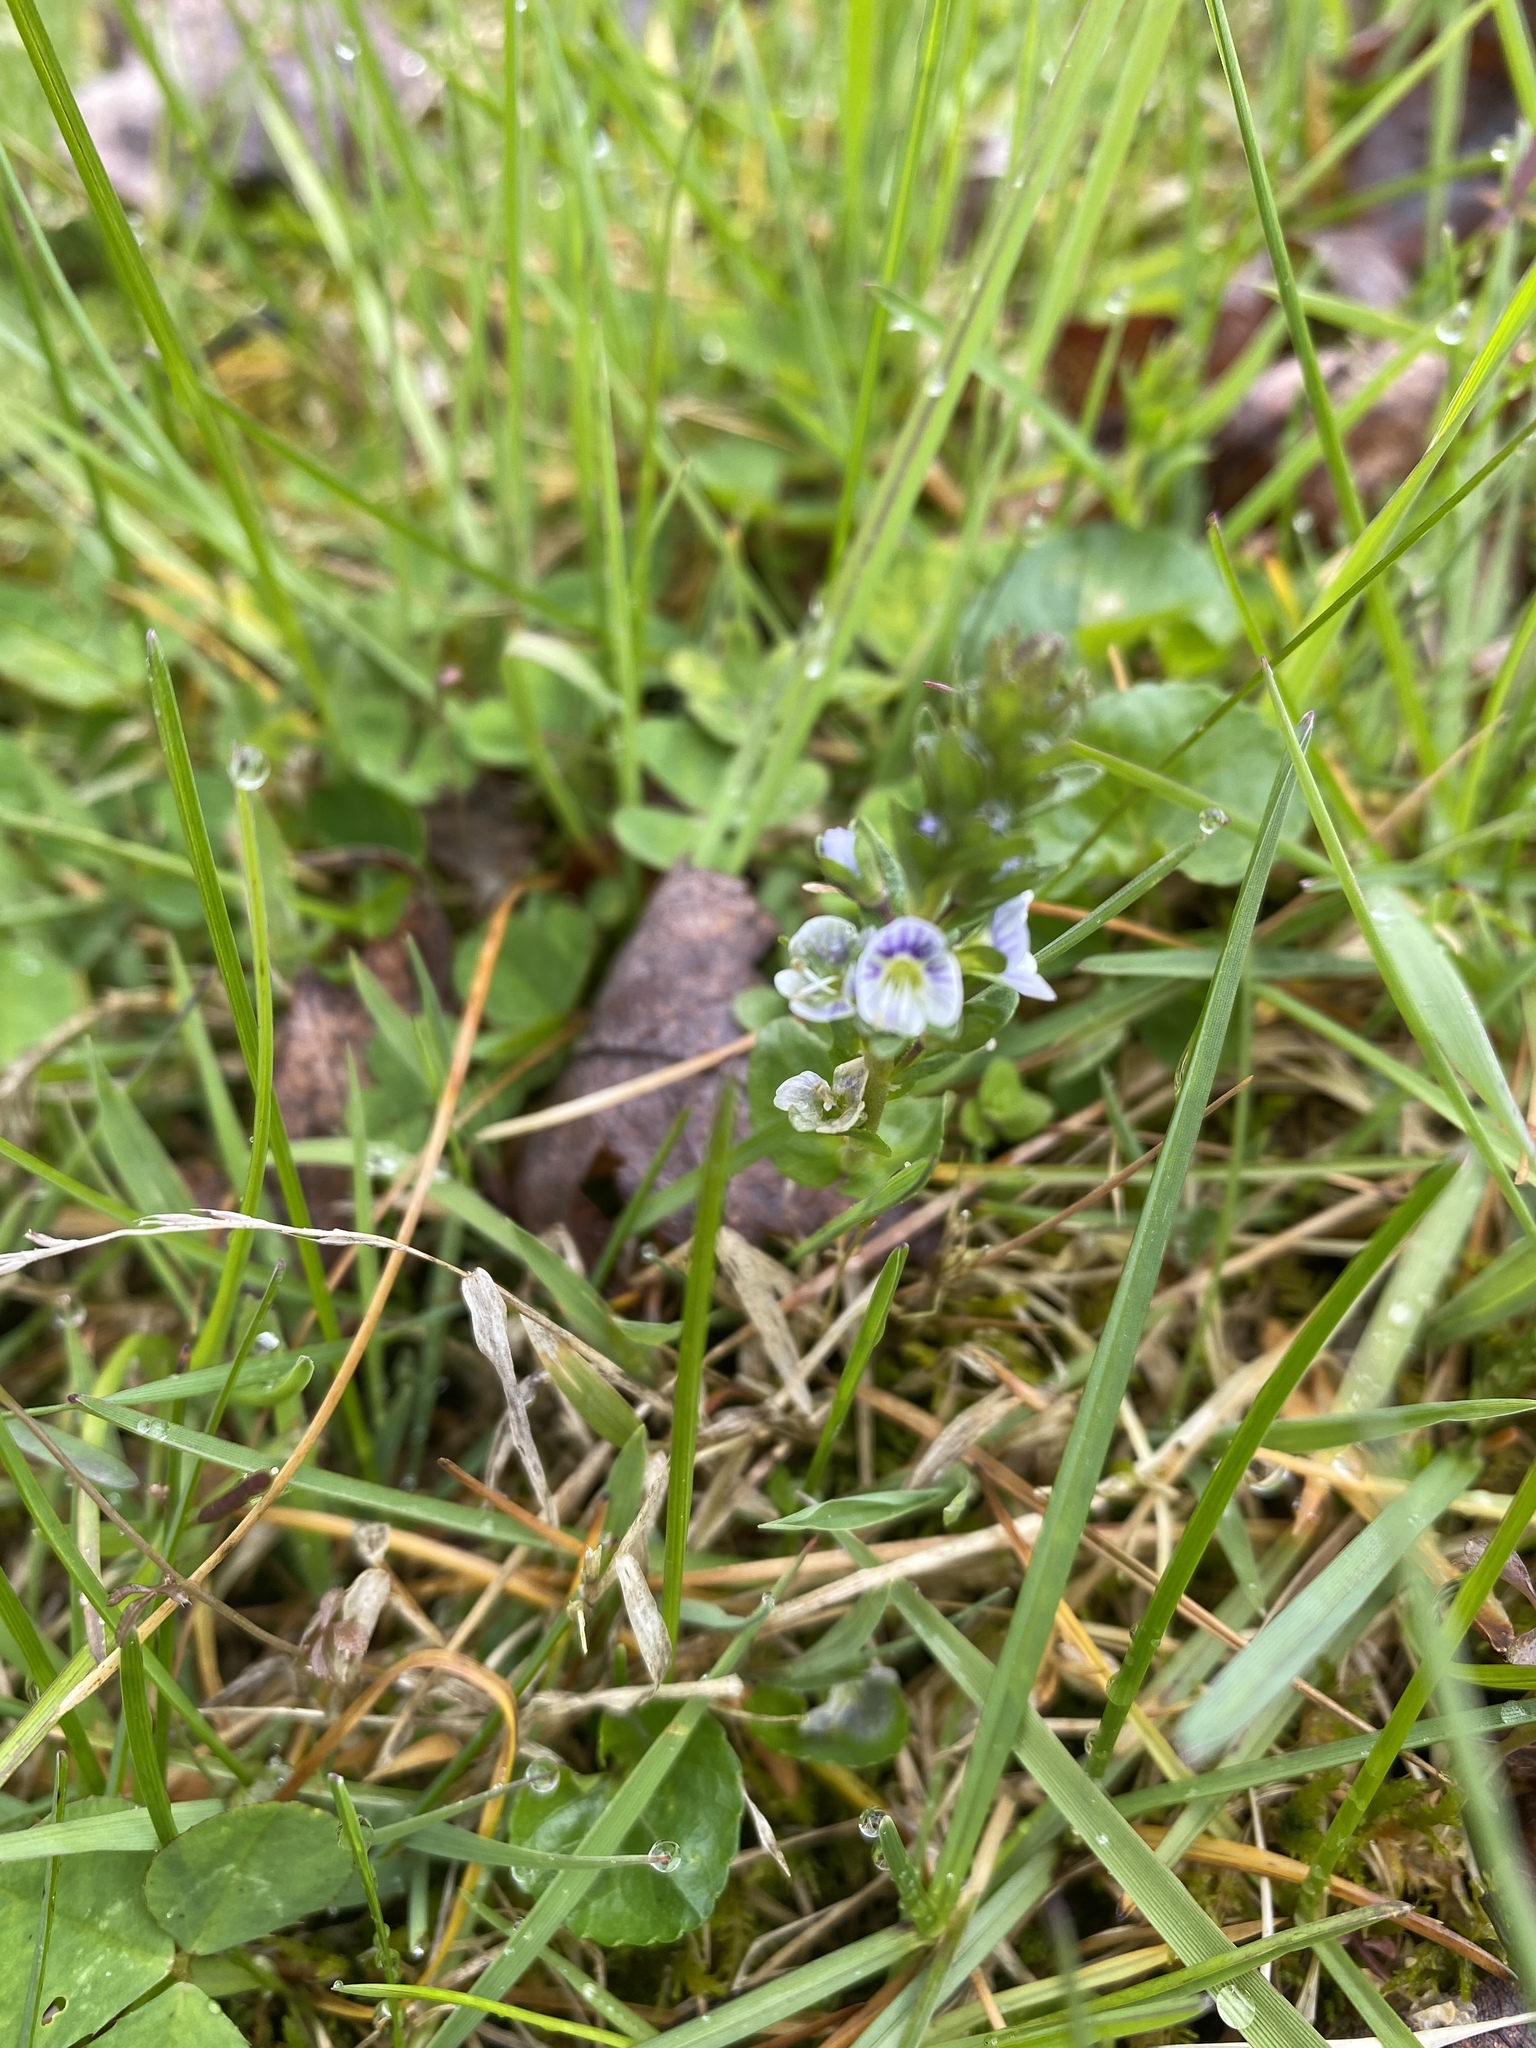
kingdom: Plantae
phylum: Tracheophyta
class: Magnoliopsida
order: Lamiales
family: Plantaginaceae
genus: Veronica
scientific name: Veronica serpyllifolia
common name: Thyme-leaved speedwell
